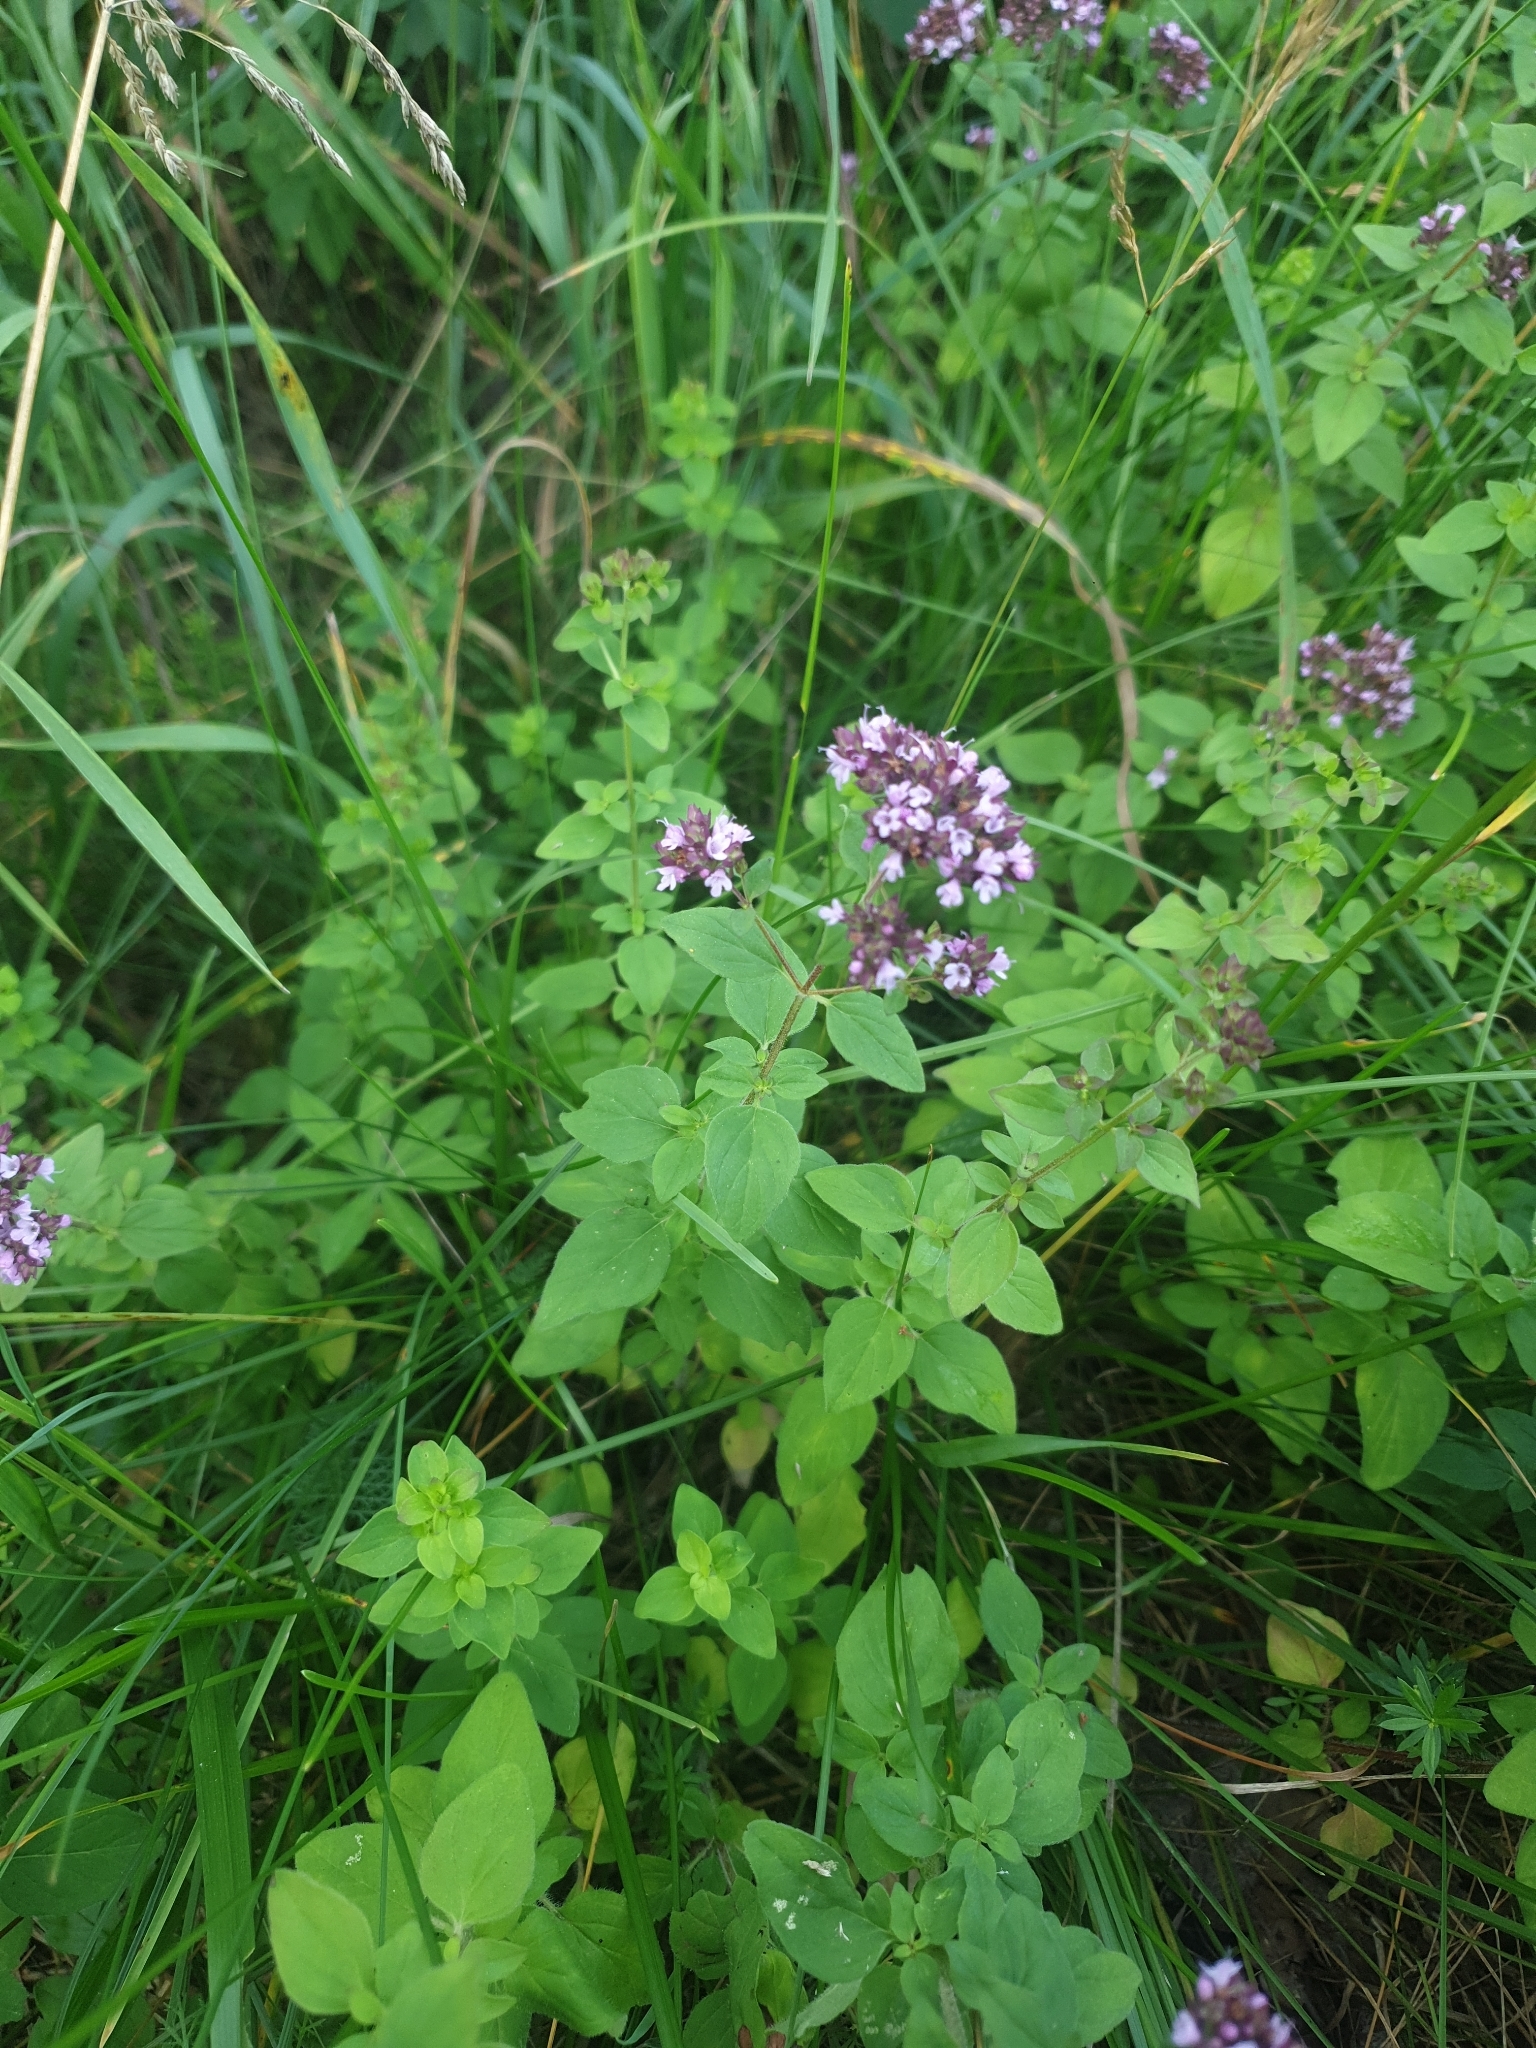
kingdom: Plantae
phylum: Tracheophyta
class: Magnoliopsida
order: Lamiales
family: Lamiaceae
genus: Origanum
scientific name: Origanum vulgare
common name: Wild marjoram
